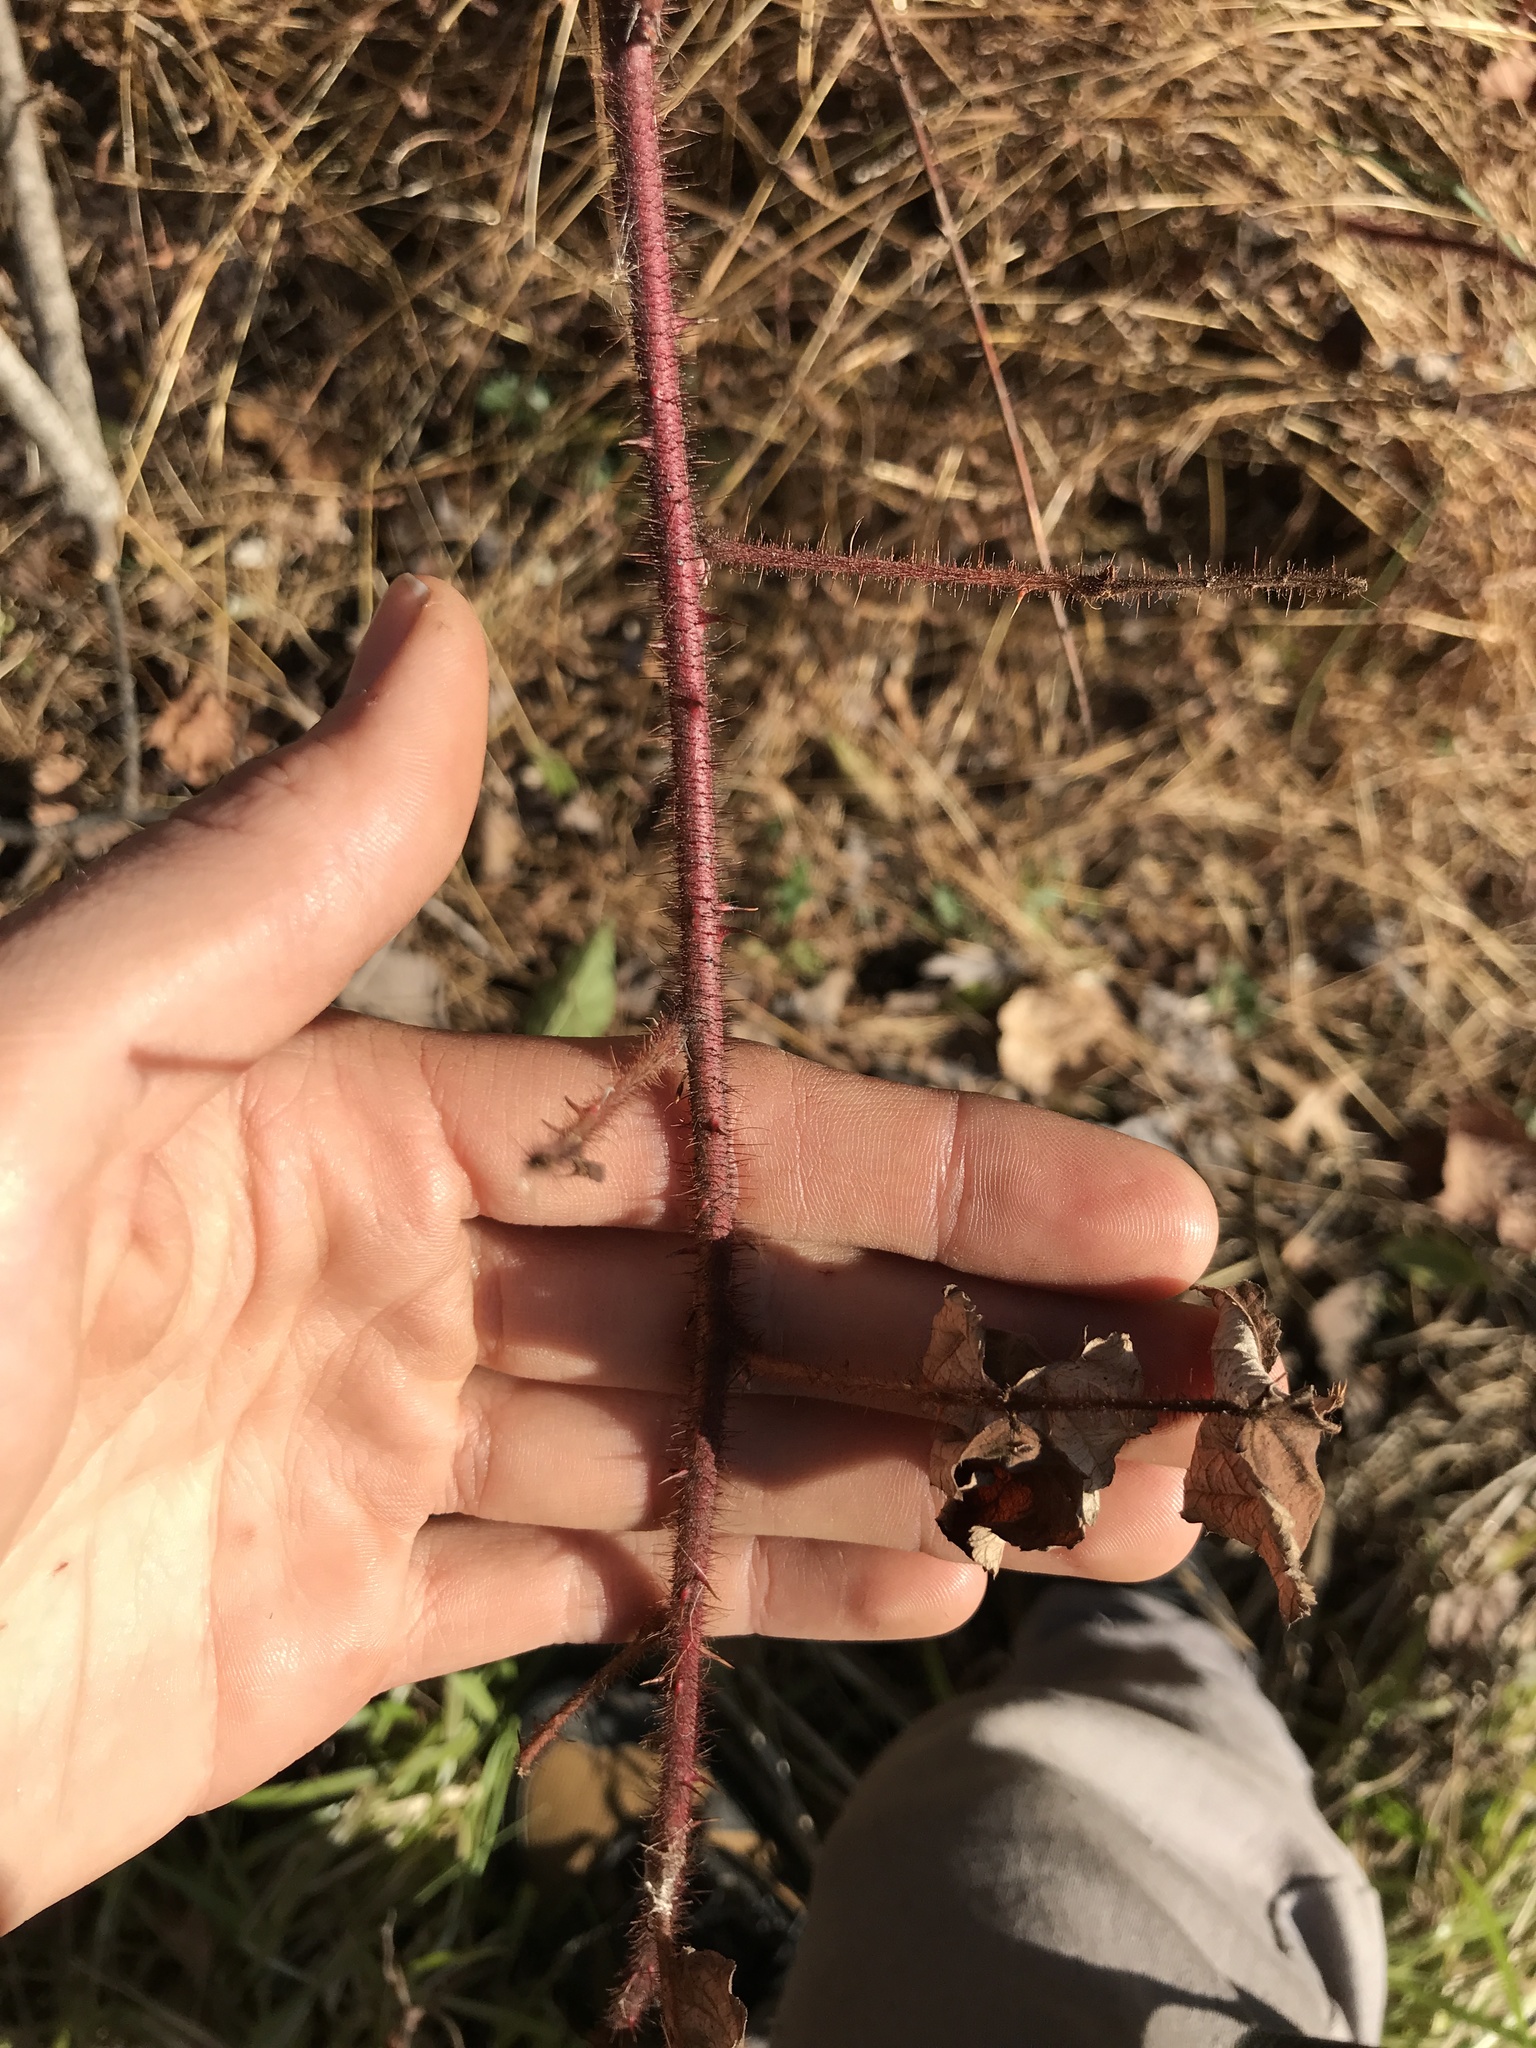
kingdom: Plantae
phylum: Tracheophyta
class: Magnoliopsida
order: Rosales
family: Rosaceae
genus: Rubus
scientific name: Rubus phoenicolasius
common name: Japanese wineberry
